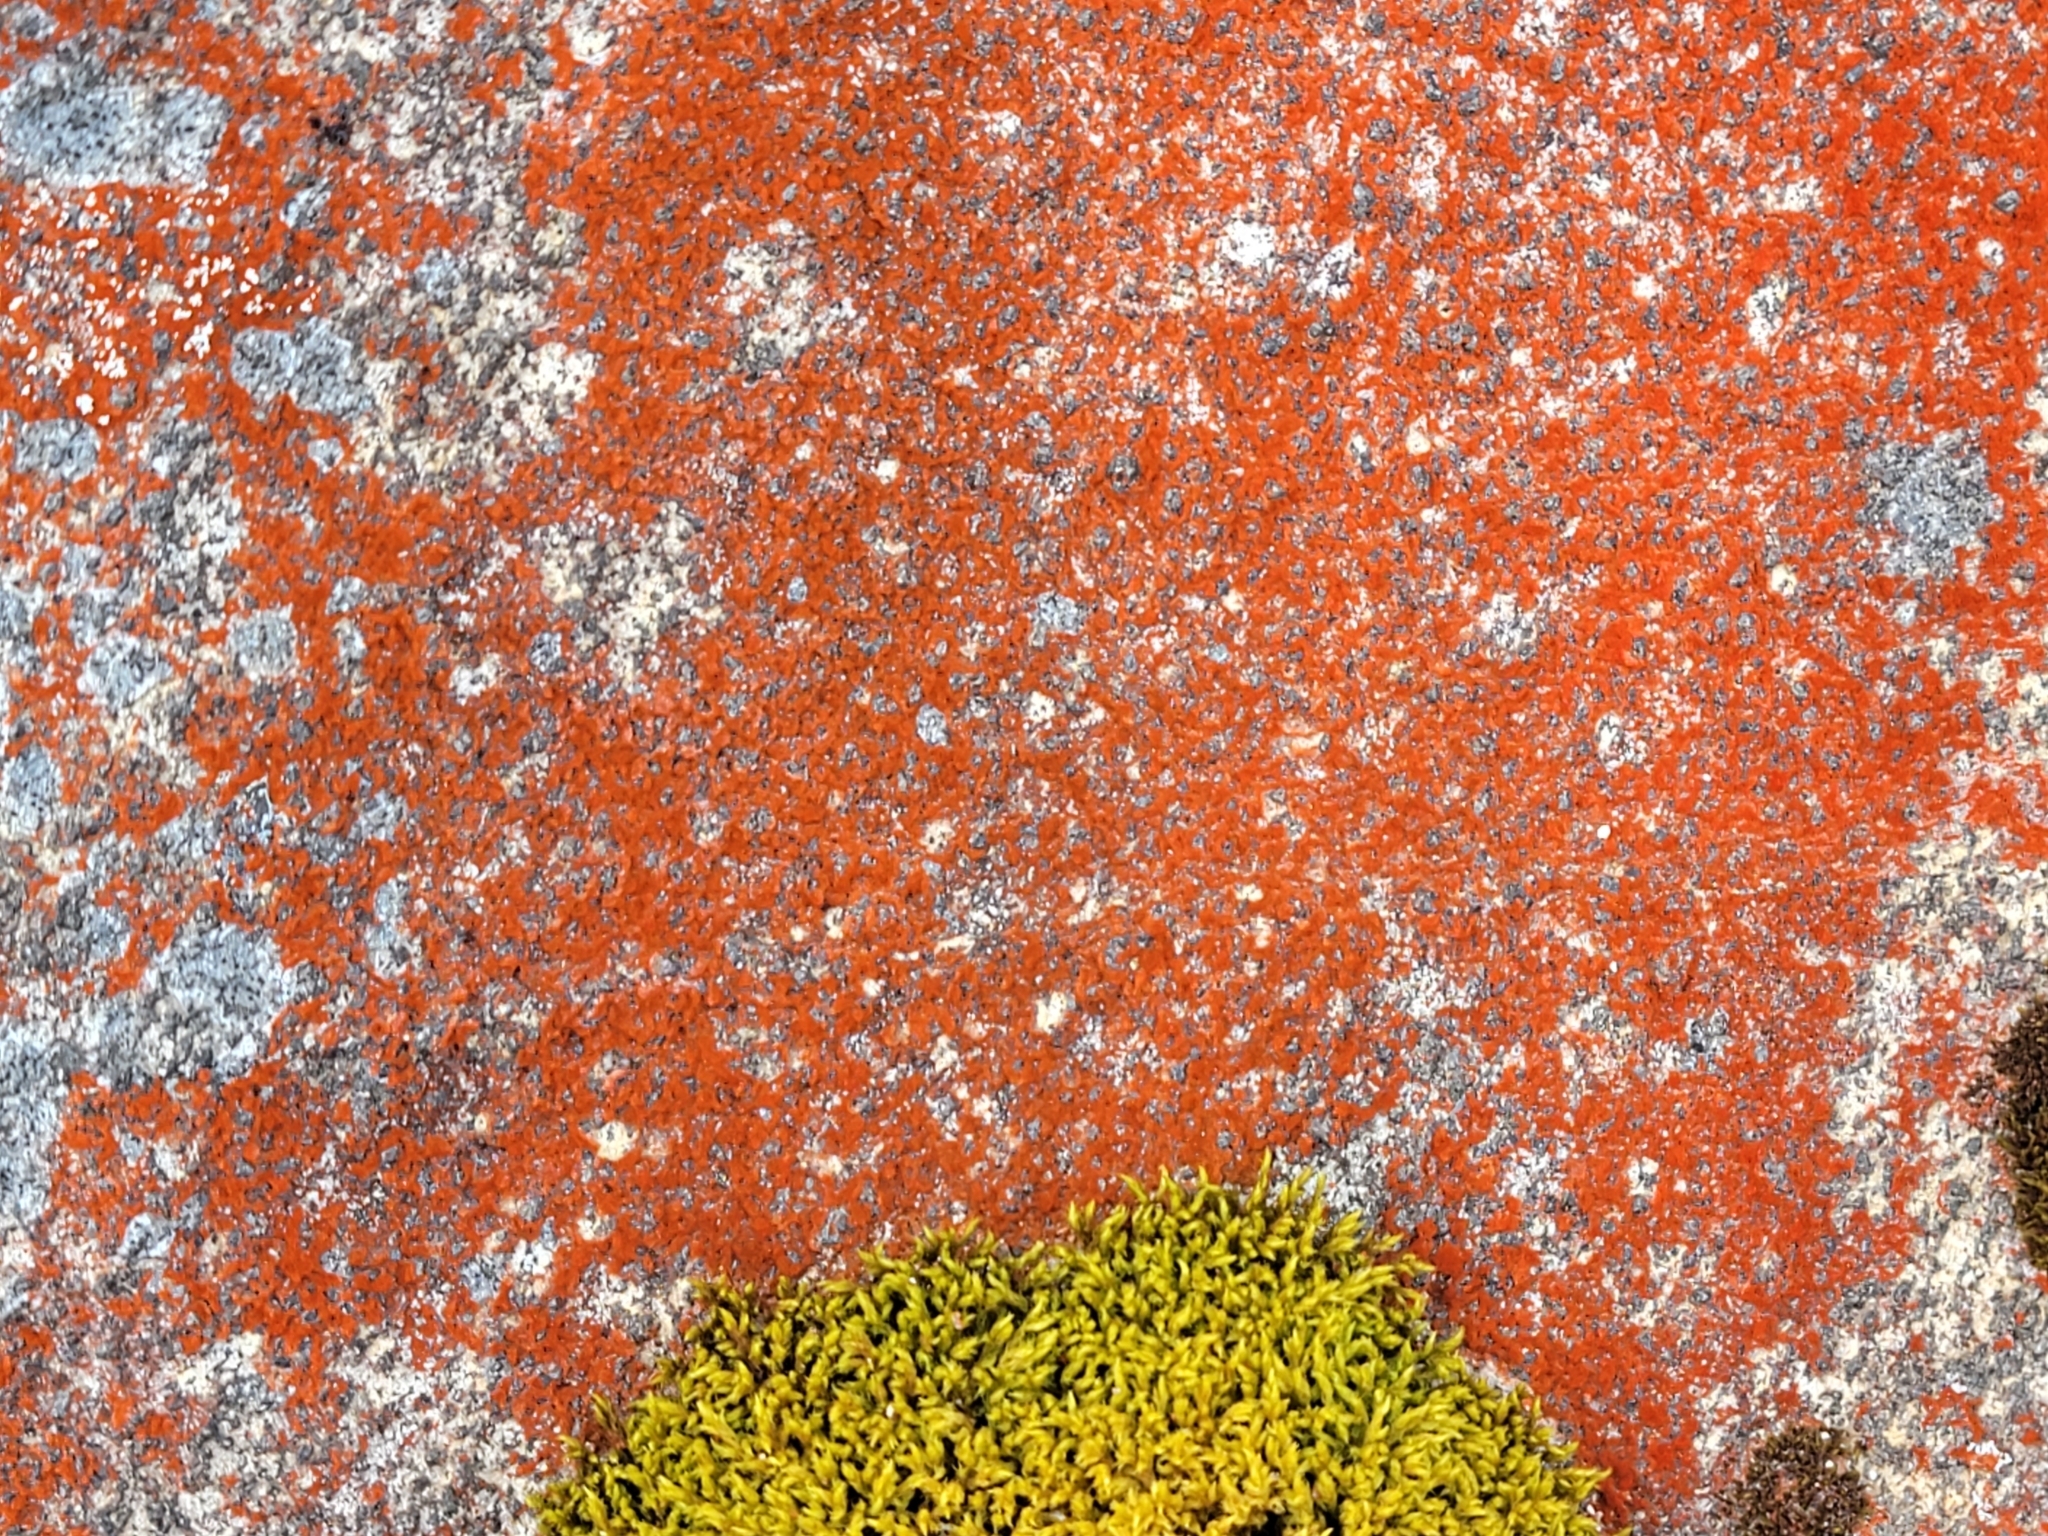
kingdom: Plantae
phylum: Chlorophyta
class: Ulvophyceae
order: Trentepohliales
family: Trentepohliaceae
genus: Trentepohlia
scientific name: Trentepohlia aurea
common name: Orange rock hair
